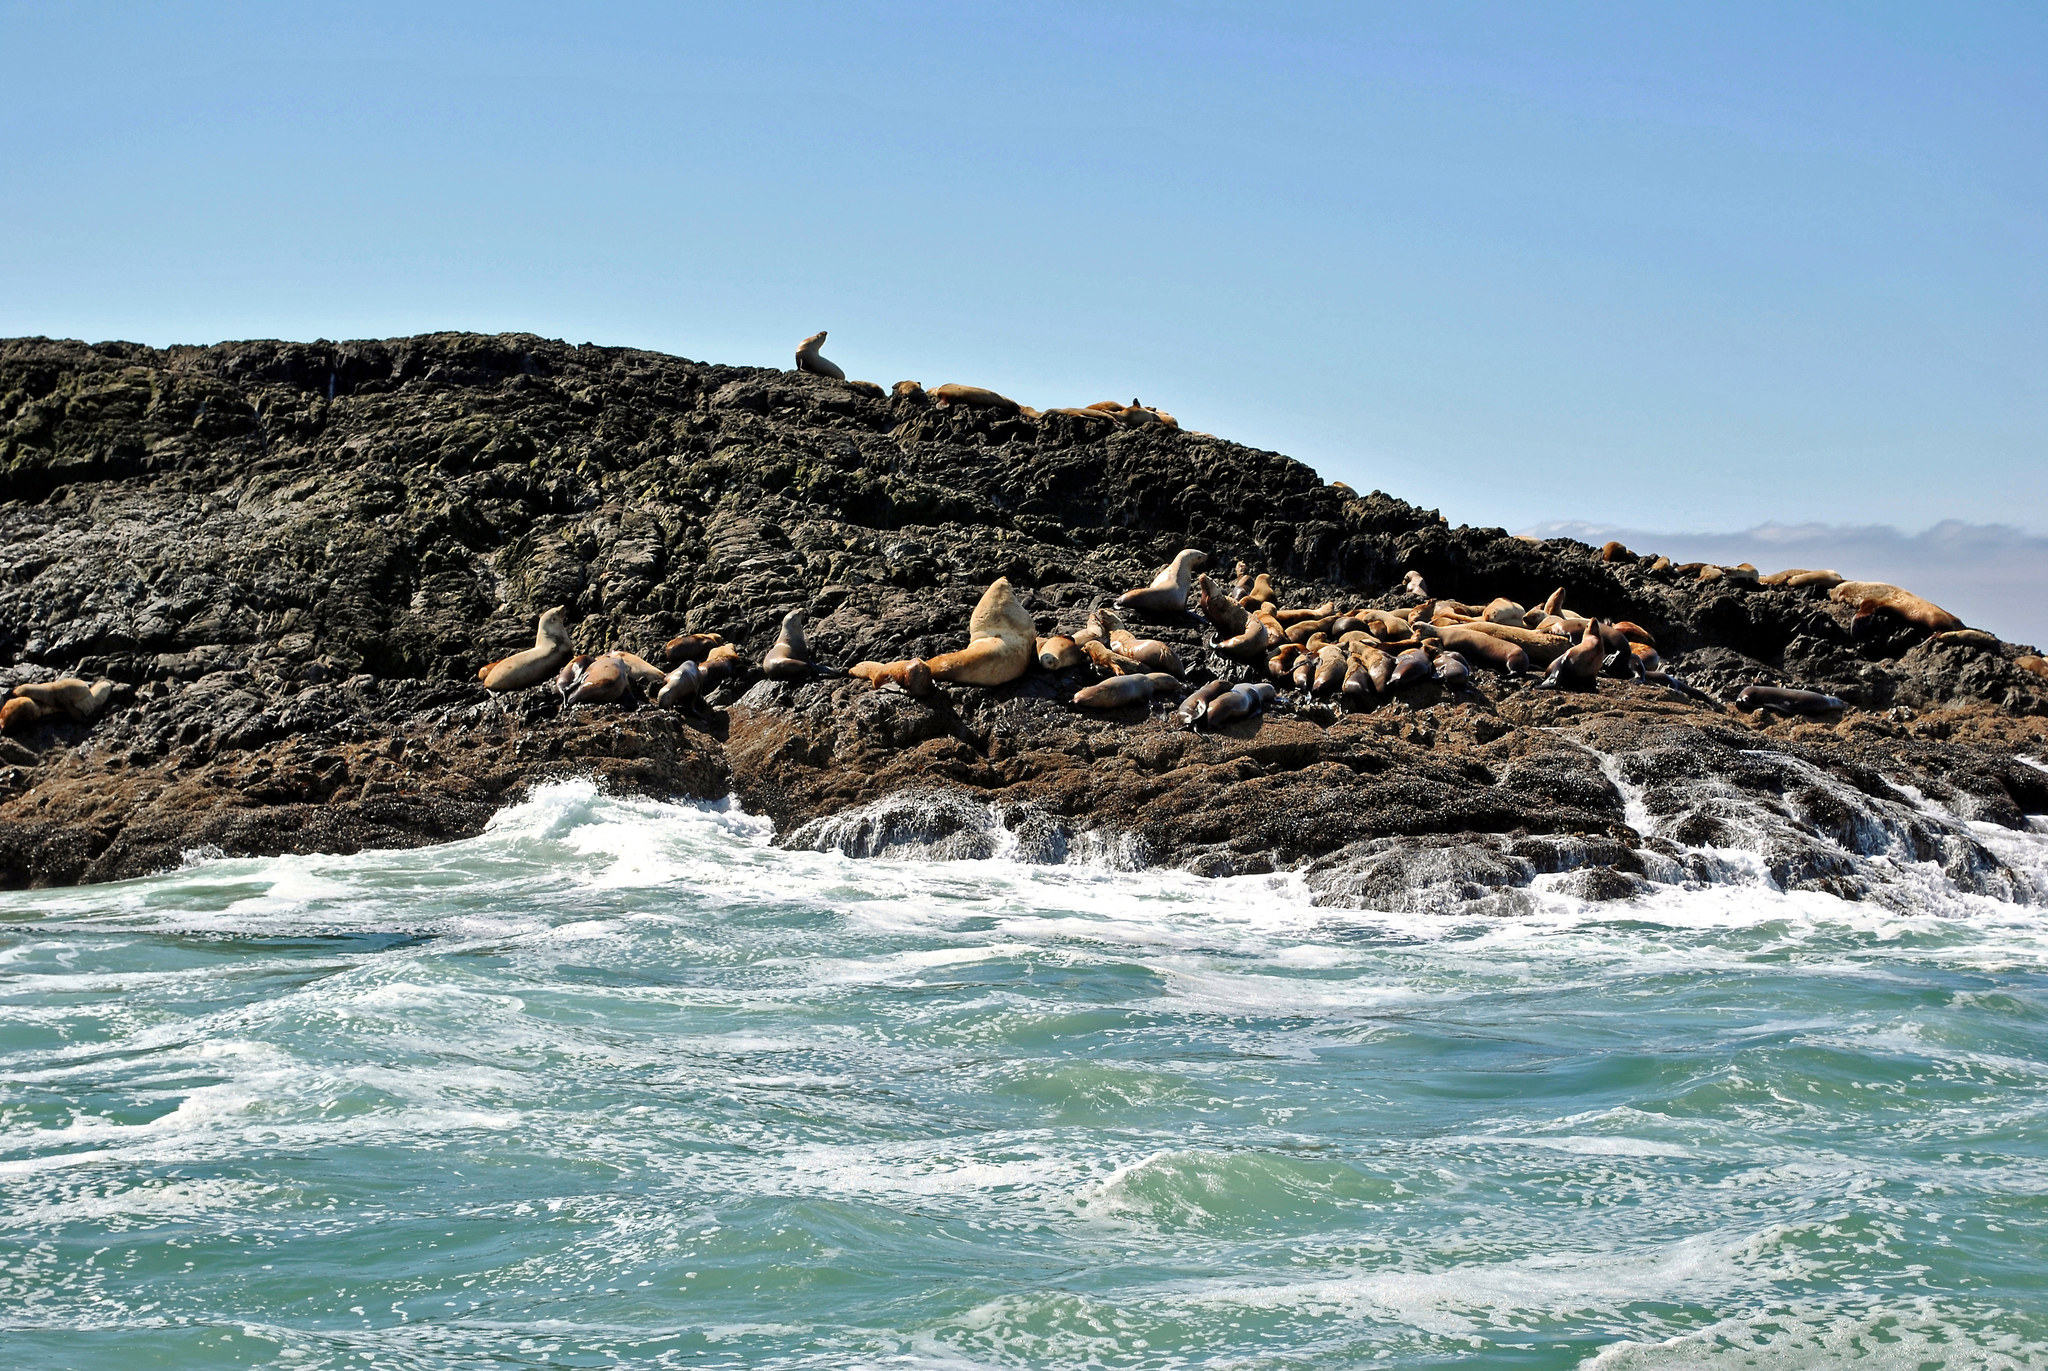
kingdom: Animalia
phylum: Chordata
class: Mammalia
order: Carnivora
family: Otariidae
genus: Eumetopias
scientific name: Eumetopias jubatus
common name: Steller sea lion
